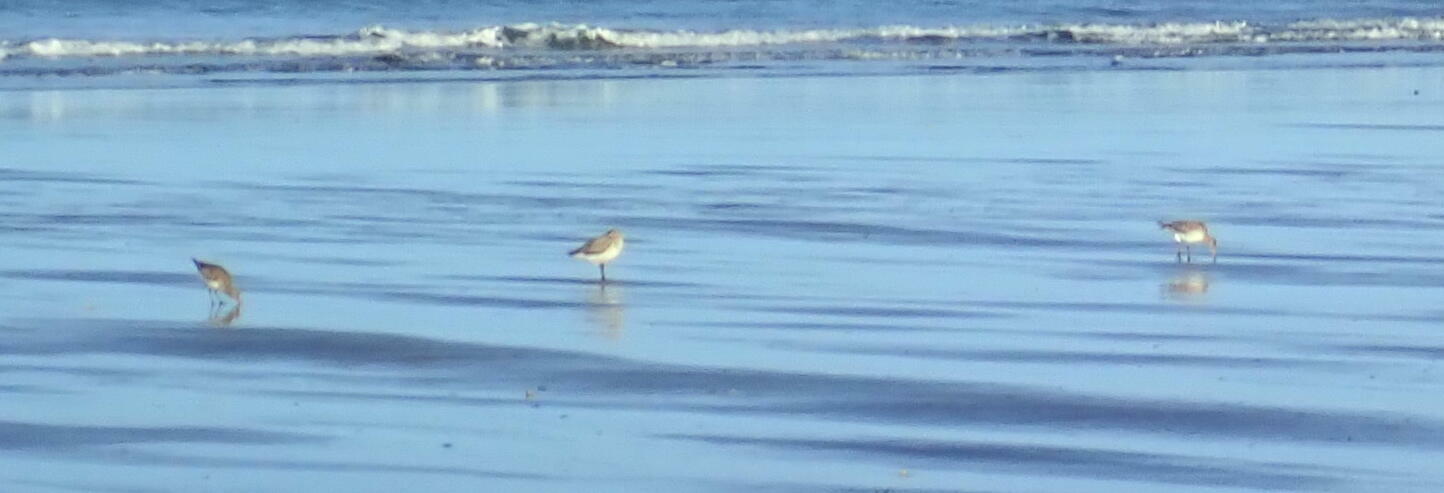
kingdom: Animalia
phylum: Chordata
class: Aves
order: Charadriiformes
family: Scolopacidae
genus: Limosa
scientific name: Limosa lapponica
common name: Bar-tailed godwit
